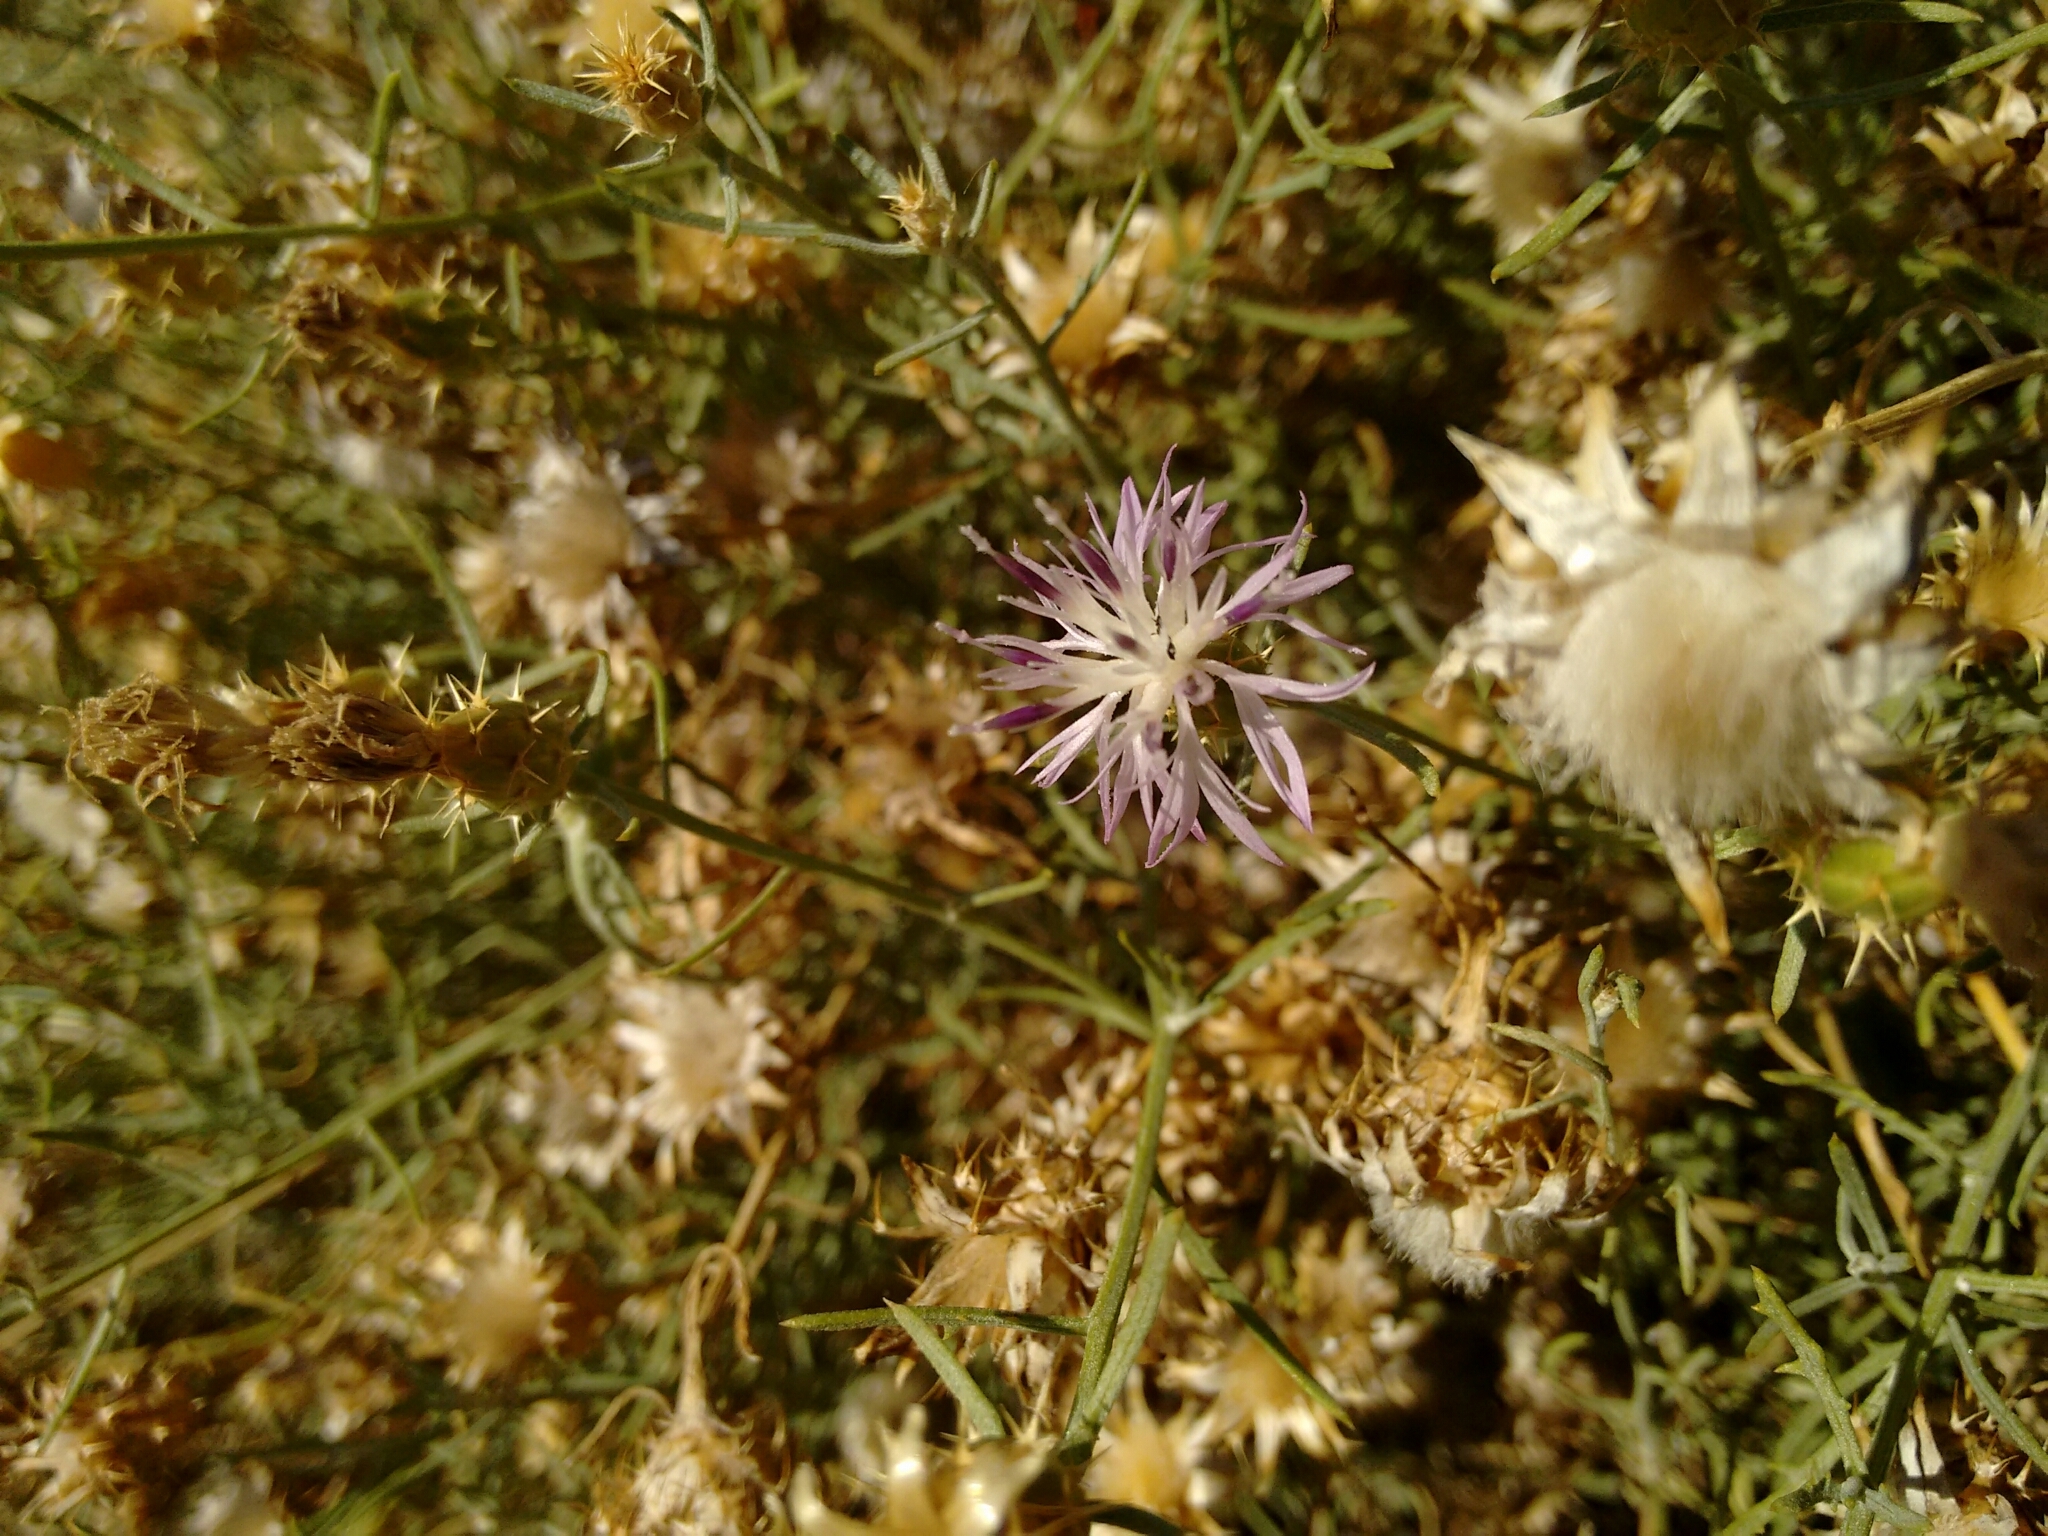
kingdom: Plantae
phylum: Tracheophyta
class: Magnoliopsida
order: Asterales
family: Asteraceae
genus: Centaurea
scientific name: Centaurea aspera
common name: Rough star-thistle
